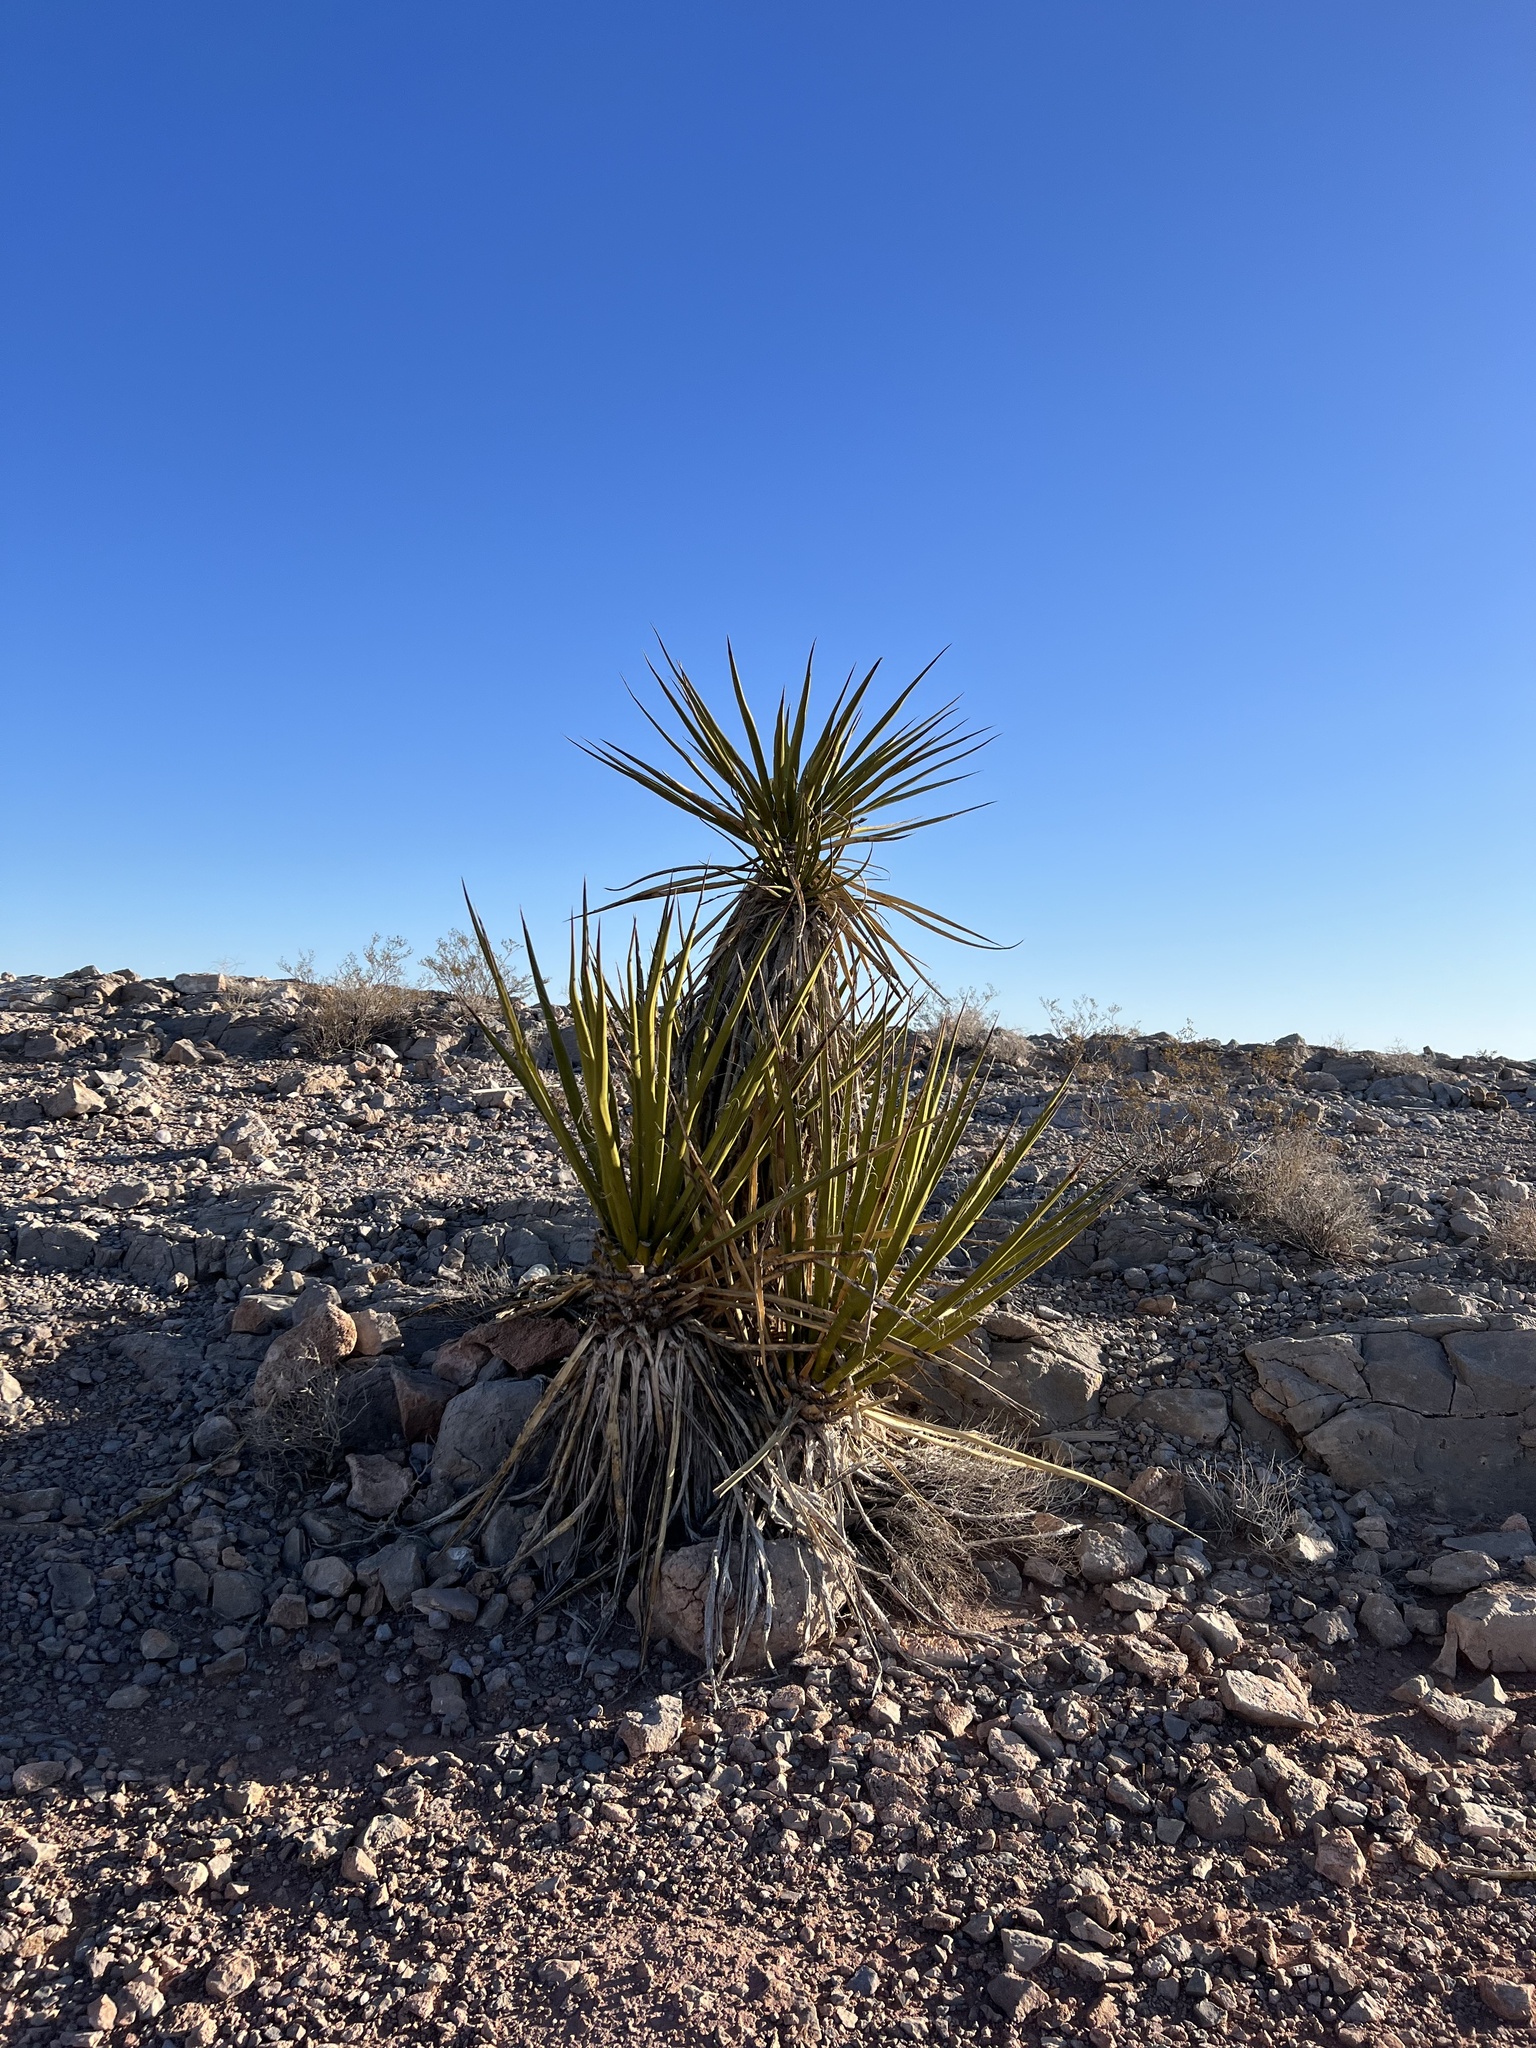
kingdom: Plantae
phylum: Tracheophyta
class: Liliopsida
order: Asparagales
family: Asparagaceae
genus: Yucca
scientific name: Yucca schidigera
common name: Mojave yucca
